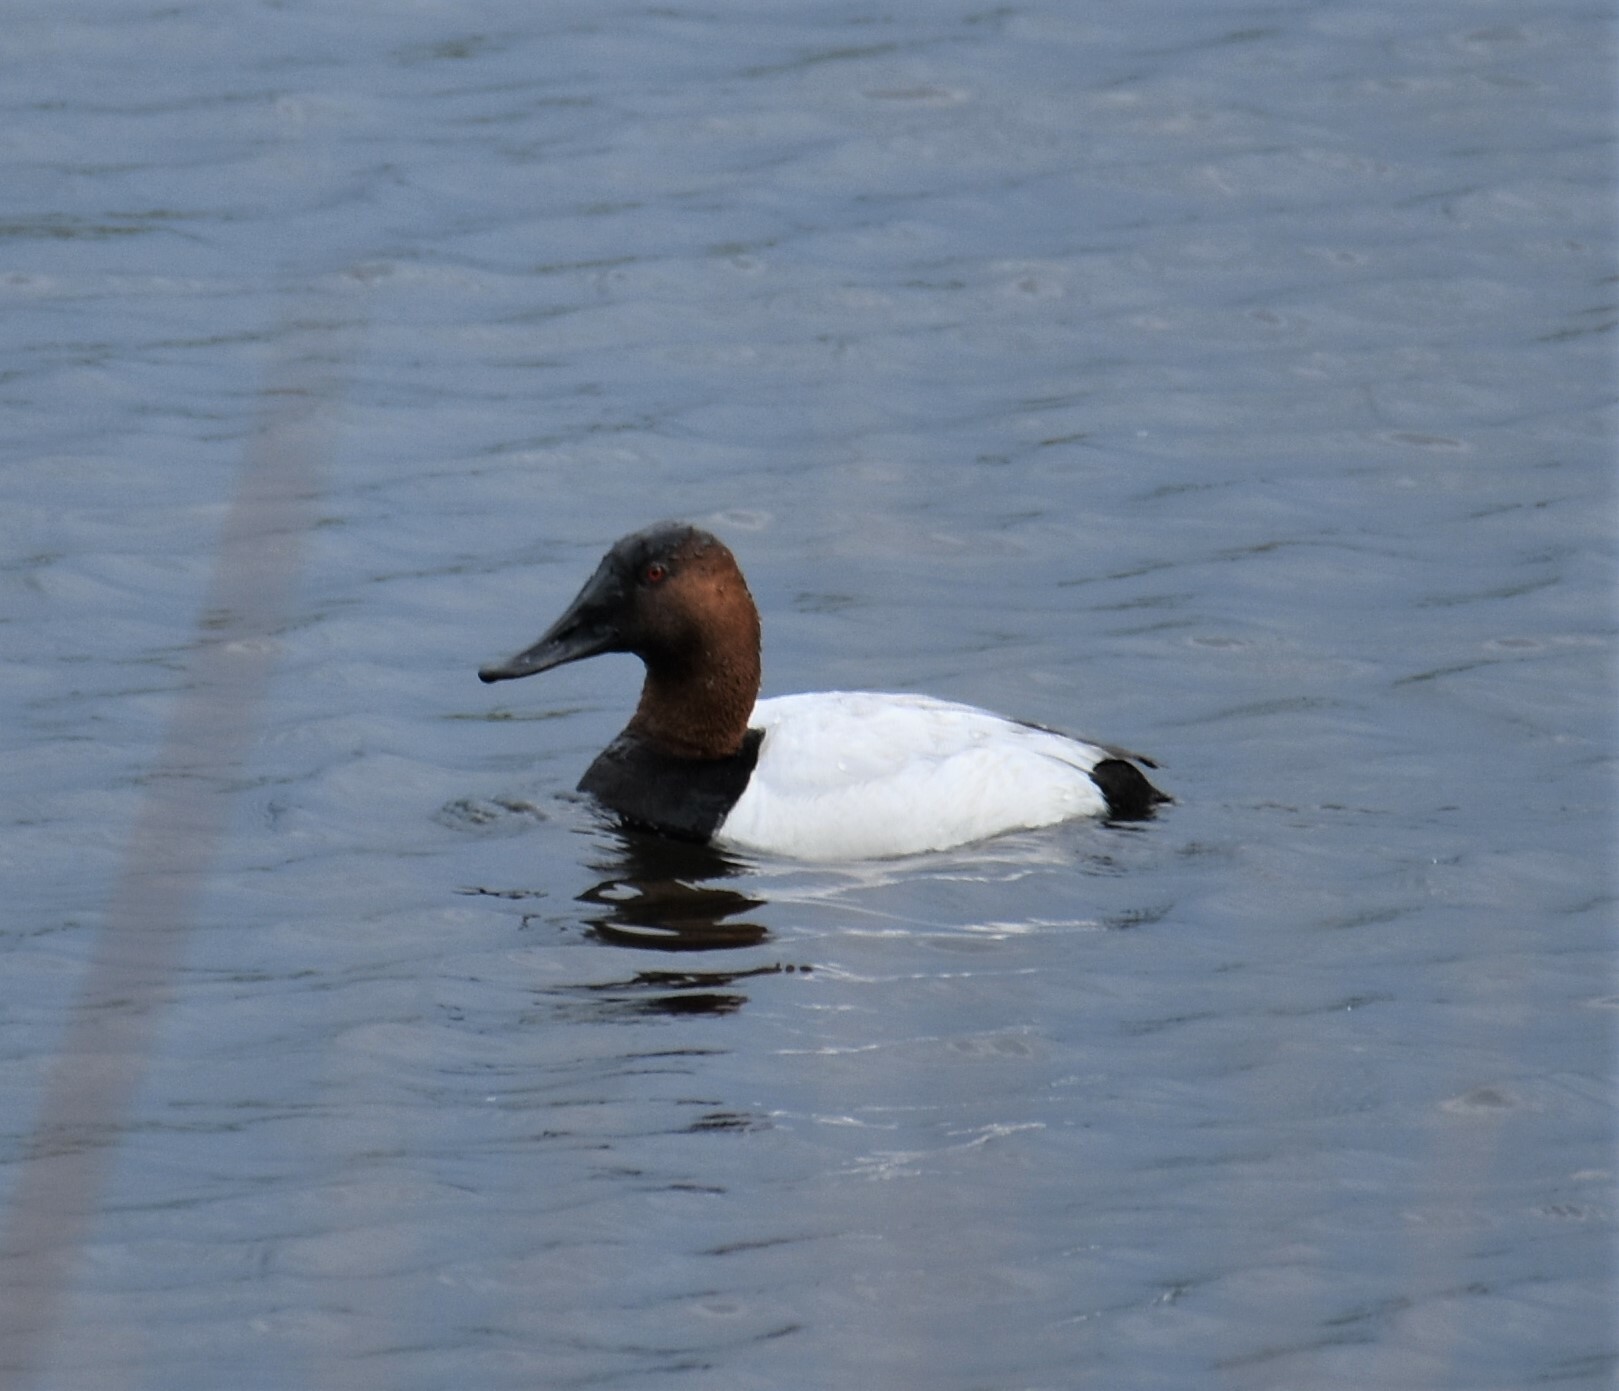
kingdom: Animalia
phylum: Chordata
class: Aves
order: Anseriformes
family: Anatidae
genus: Aythya
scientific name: Aythya valisineria
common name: Canvasback
